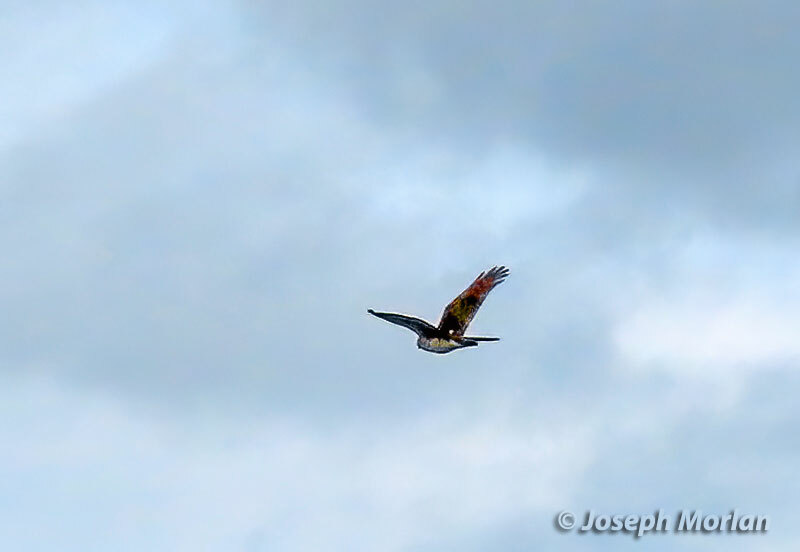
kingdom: Animalia
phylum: Chordata
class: Aves
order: Accipitriformes
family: Accipitridae
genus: Circus
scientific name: Circus cyaneus
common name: Hen harrier
